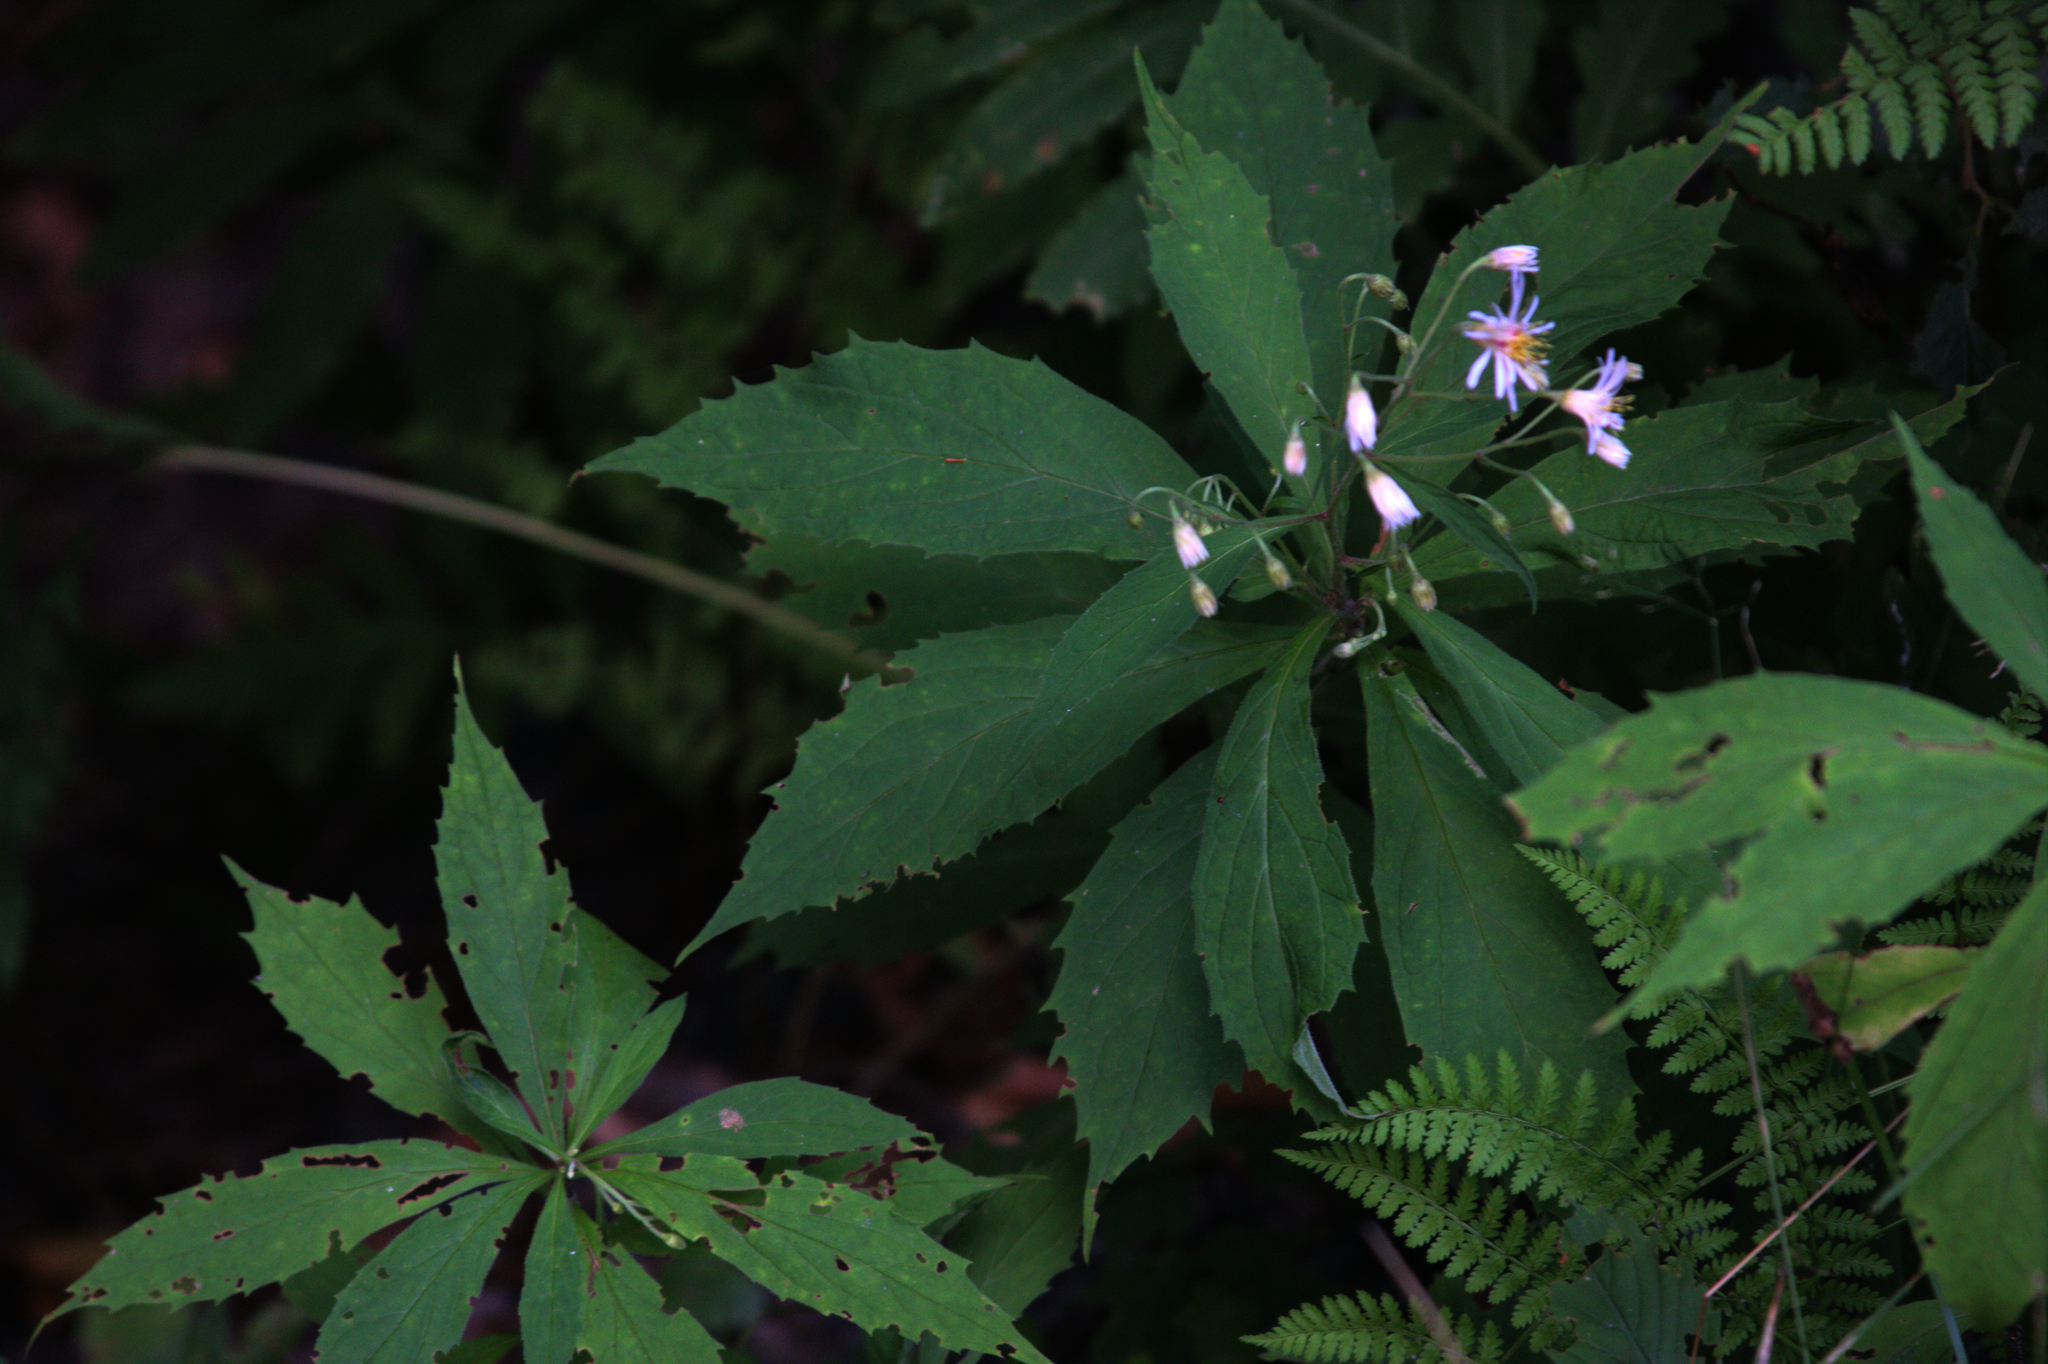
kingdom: Plantae
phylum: Tracheophyta
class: Magnoliopsida
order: Asterales
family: Asteraceae
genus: Oclemena
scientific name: Oclemena acuminata
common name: Mountain aster
